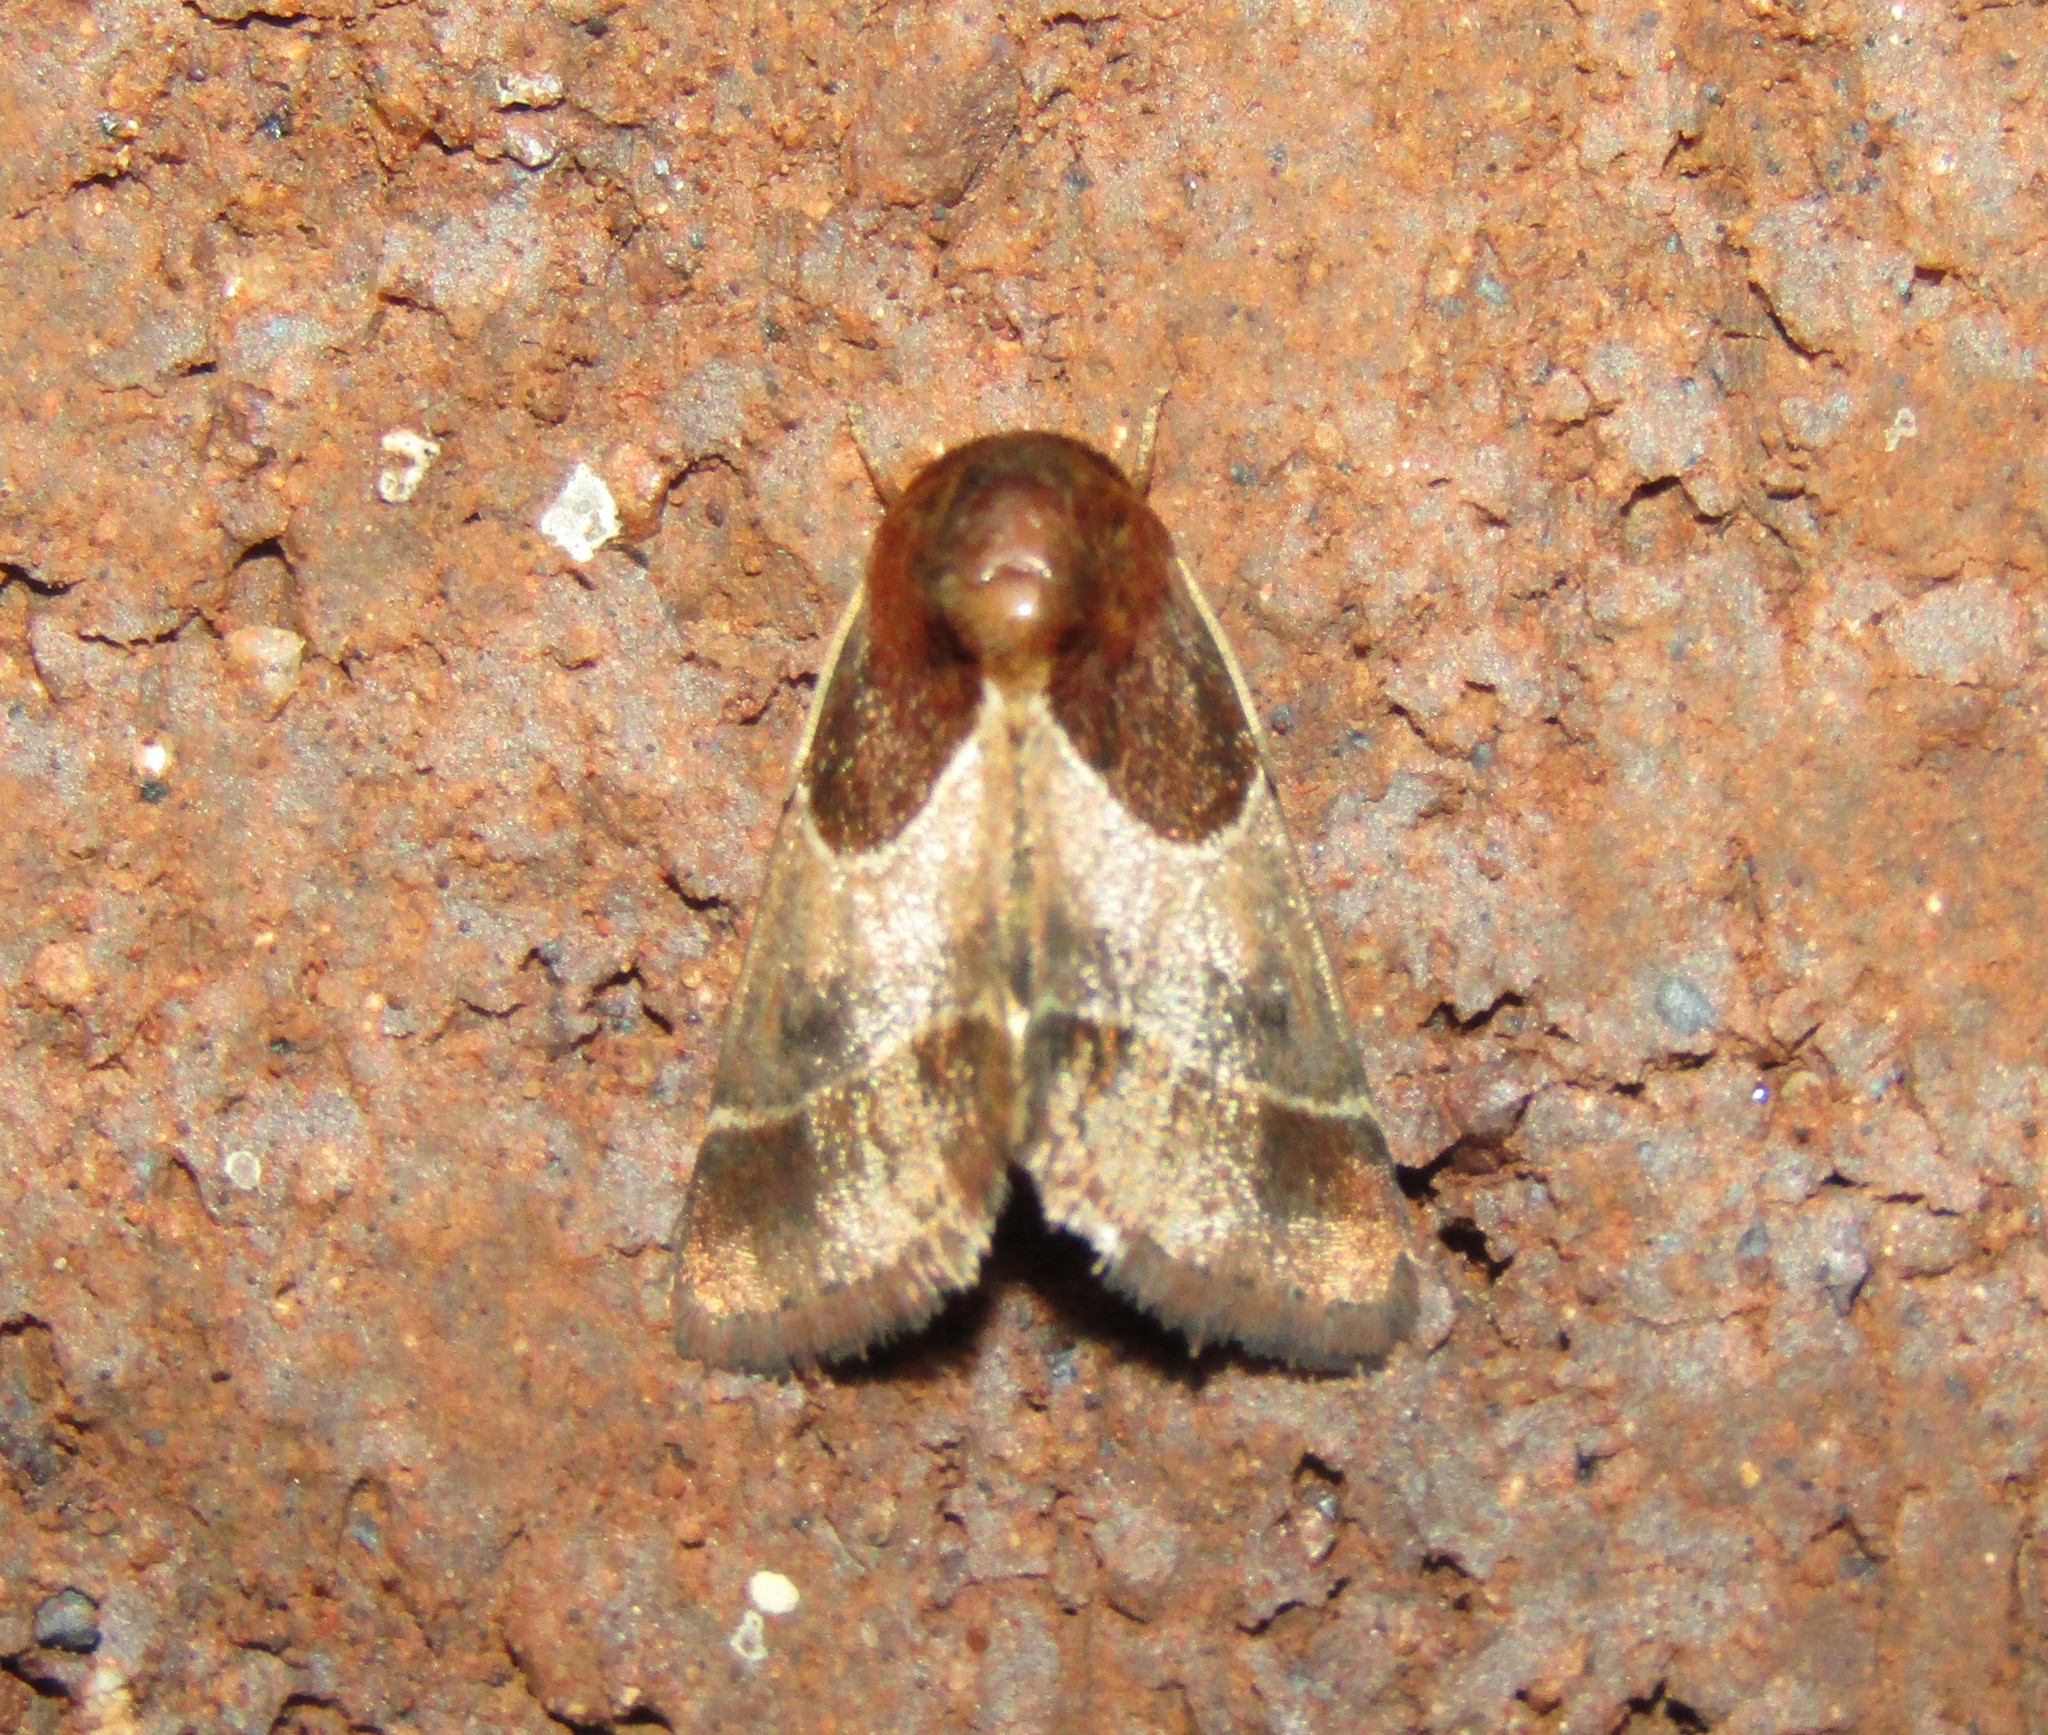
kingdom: Animalia
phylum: Arthropoda
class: Insecta
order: Lepidoptera
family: Noctuidae
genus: Schinia
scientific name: Schinia arcigera
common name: Arcigera flower moth
